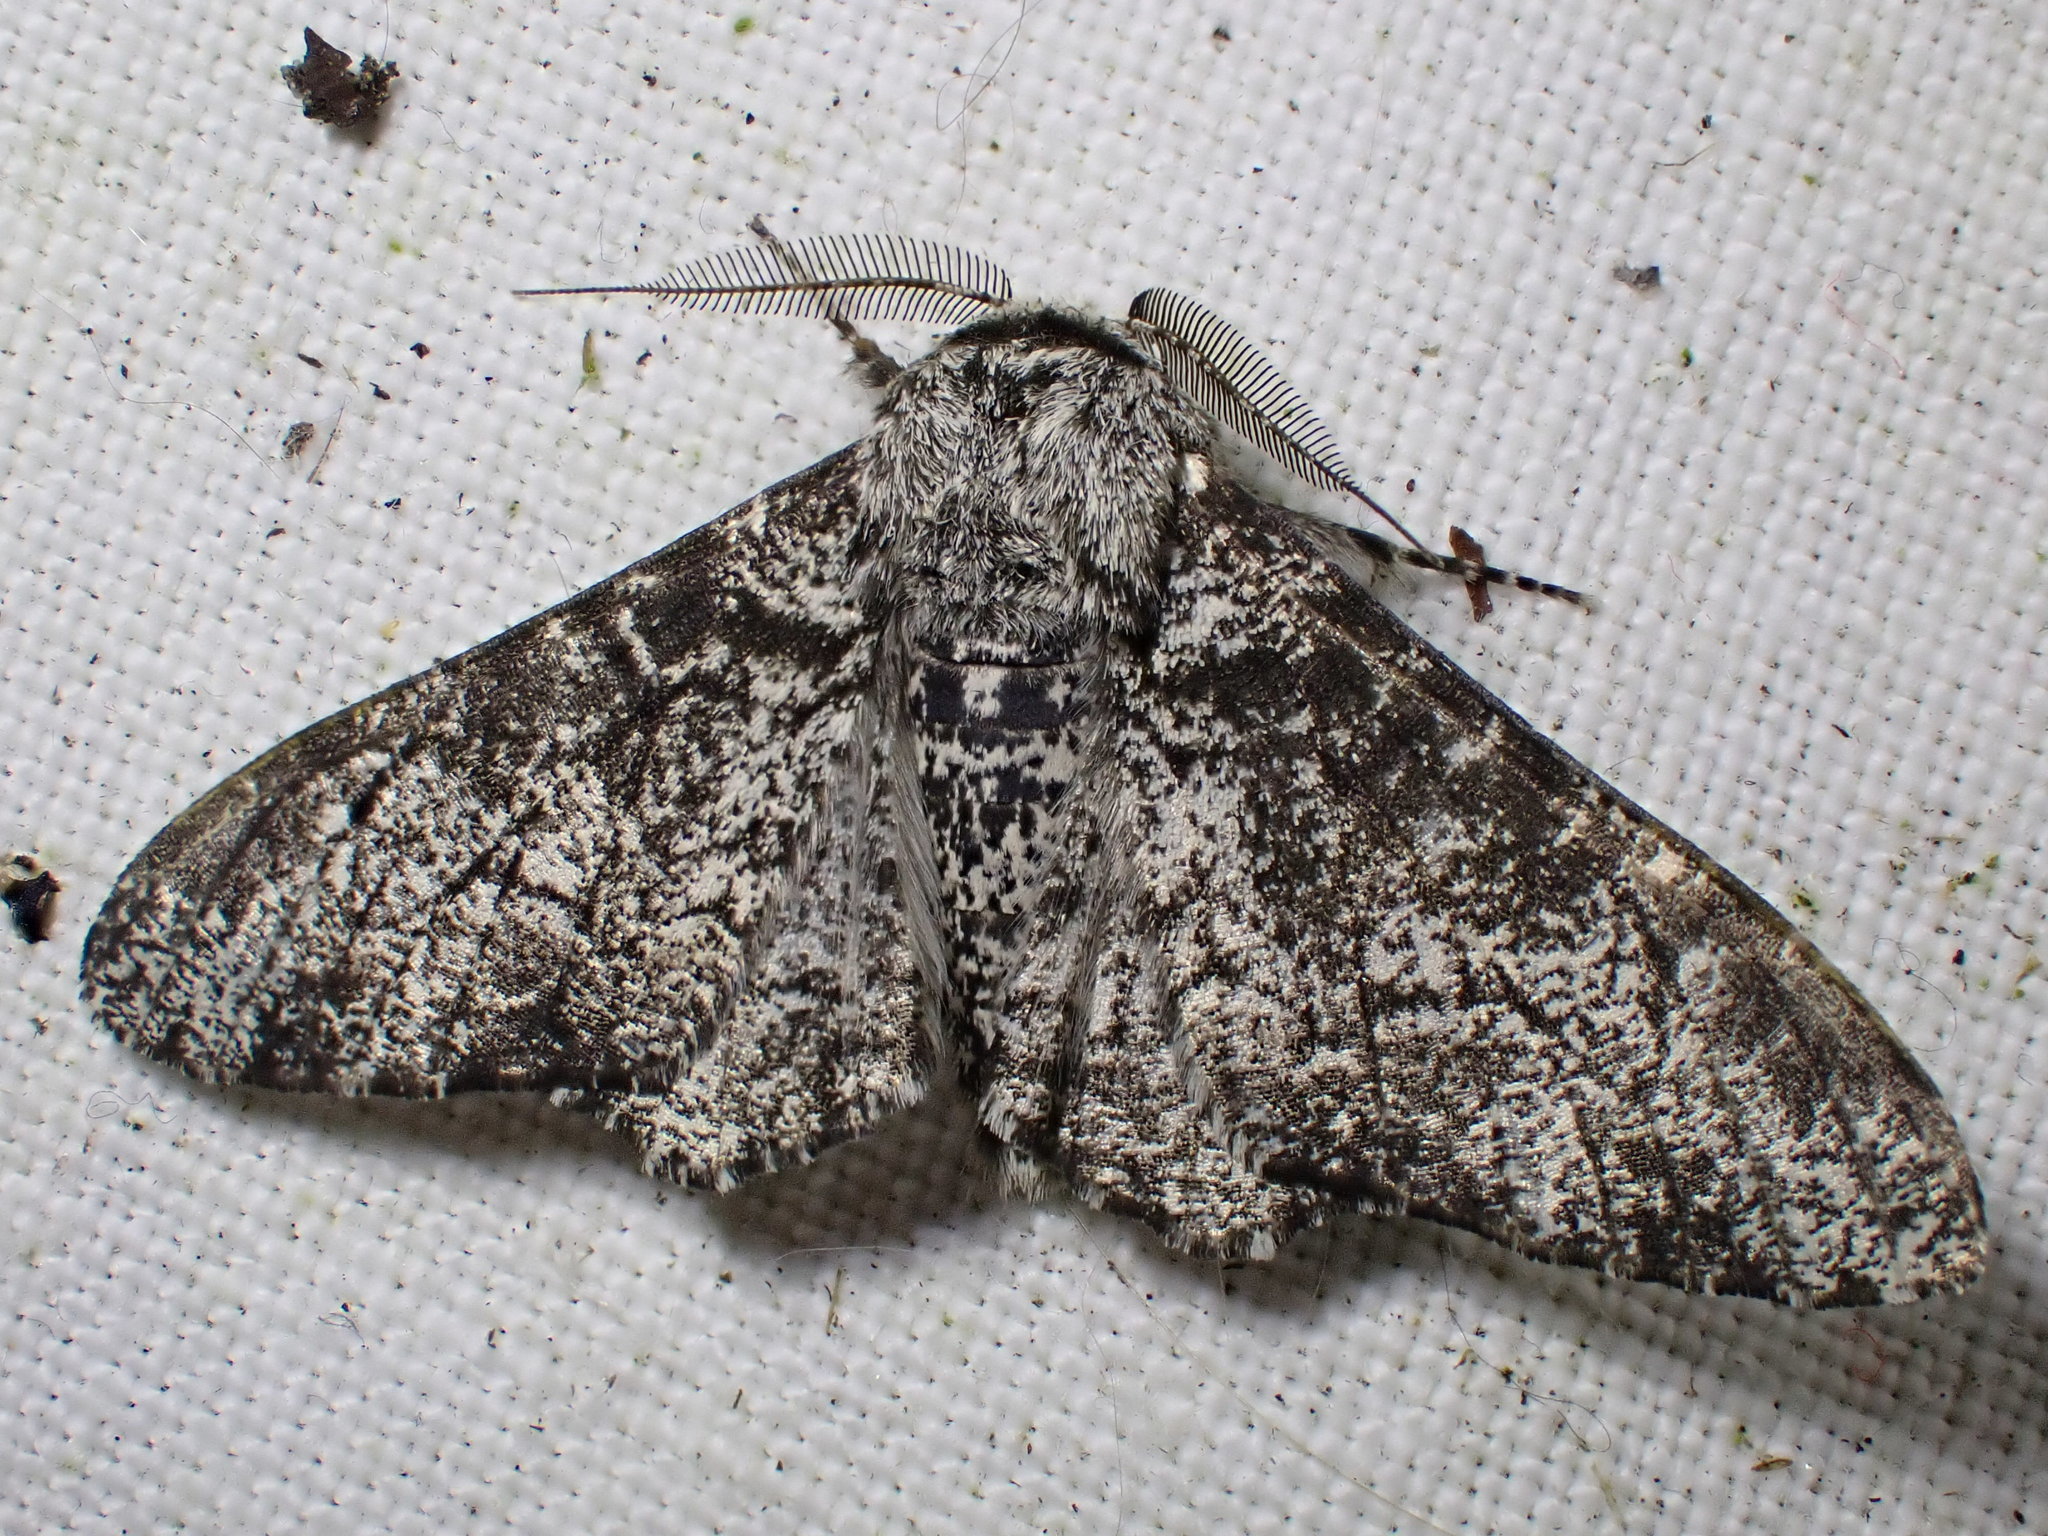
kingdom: Animalia
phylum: Arthropoda
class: Insecta
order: Lepidoptera
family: Geometridae
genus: Biston
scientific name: Biston betularia
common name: Peppered moth
